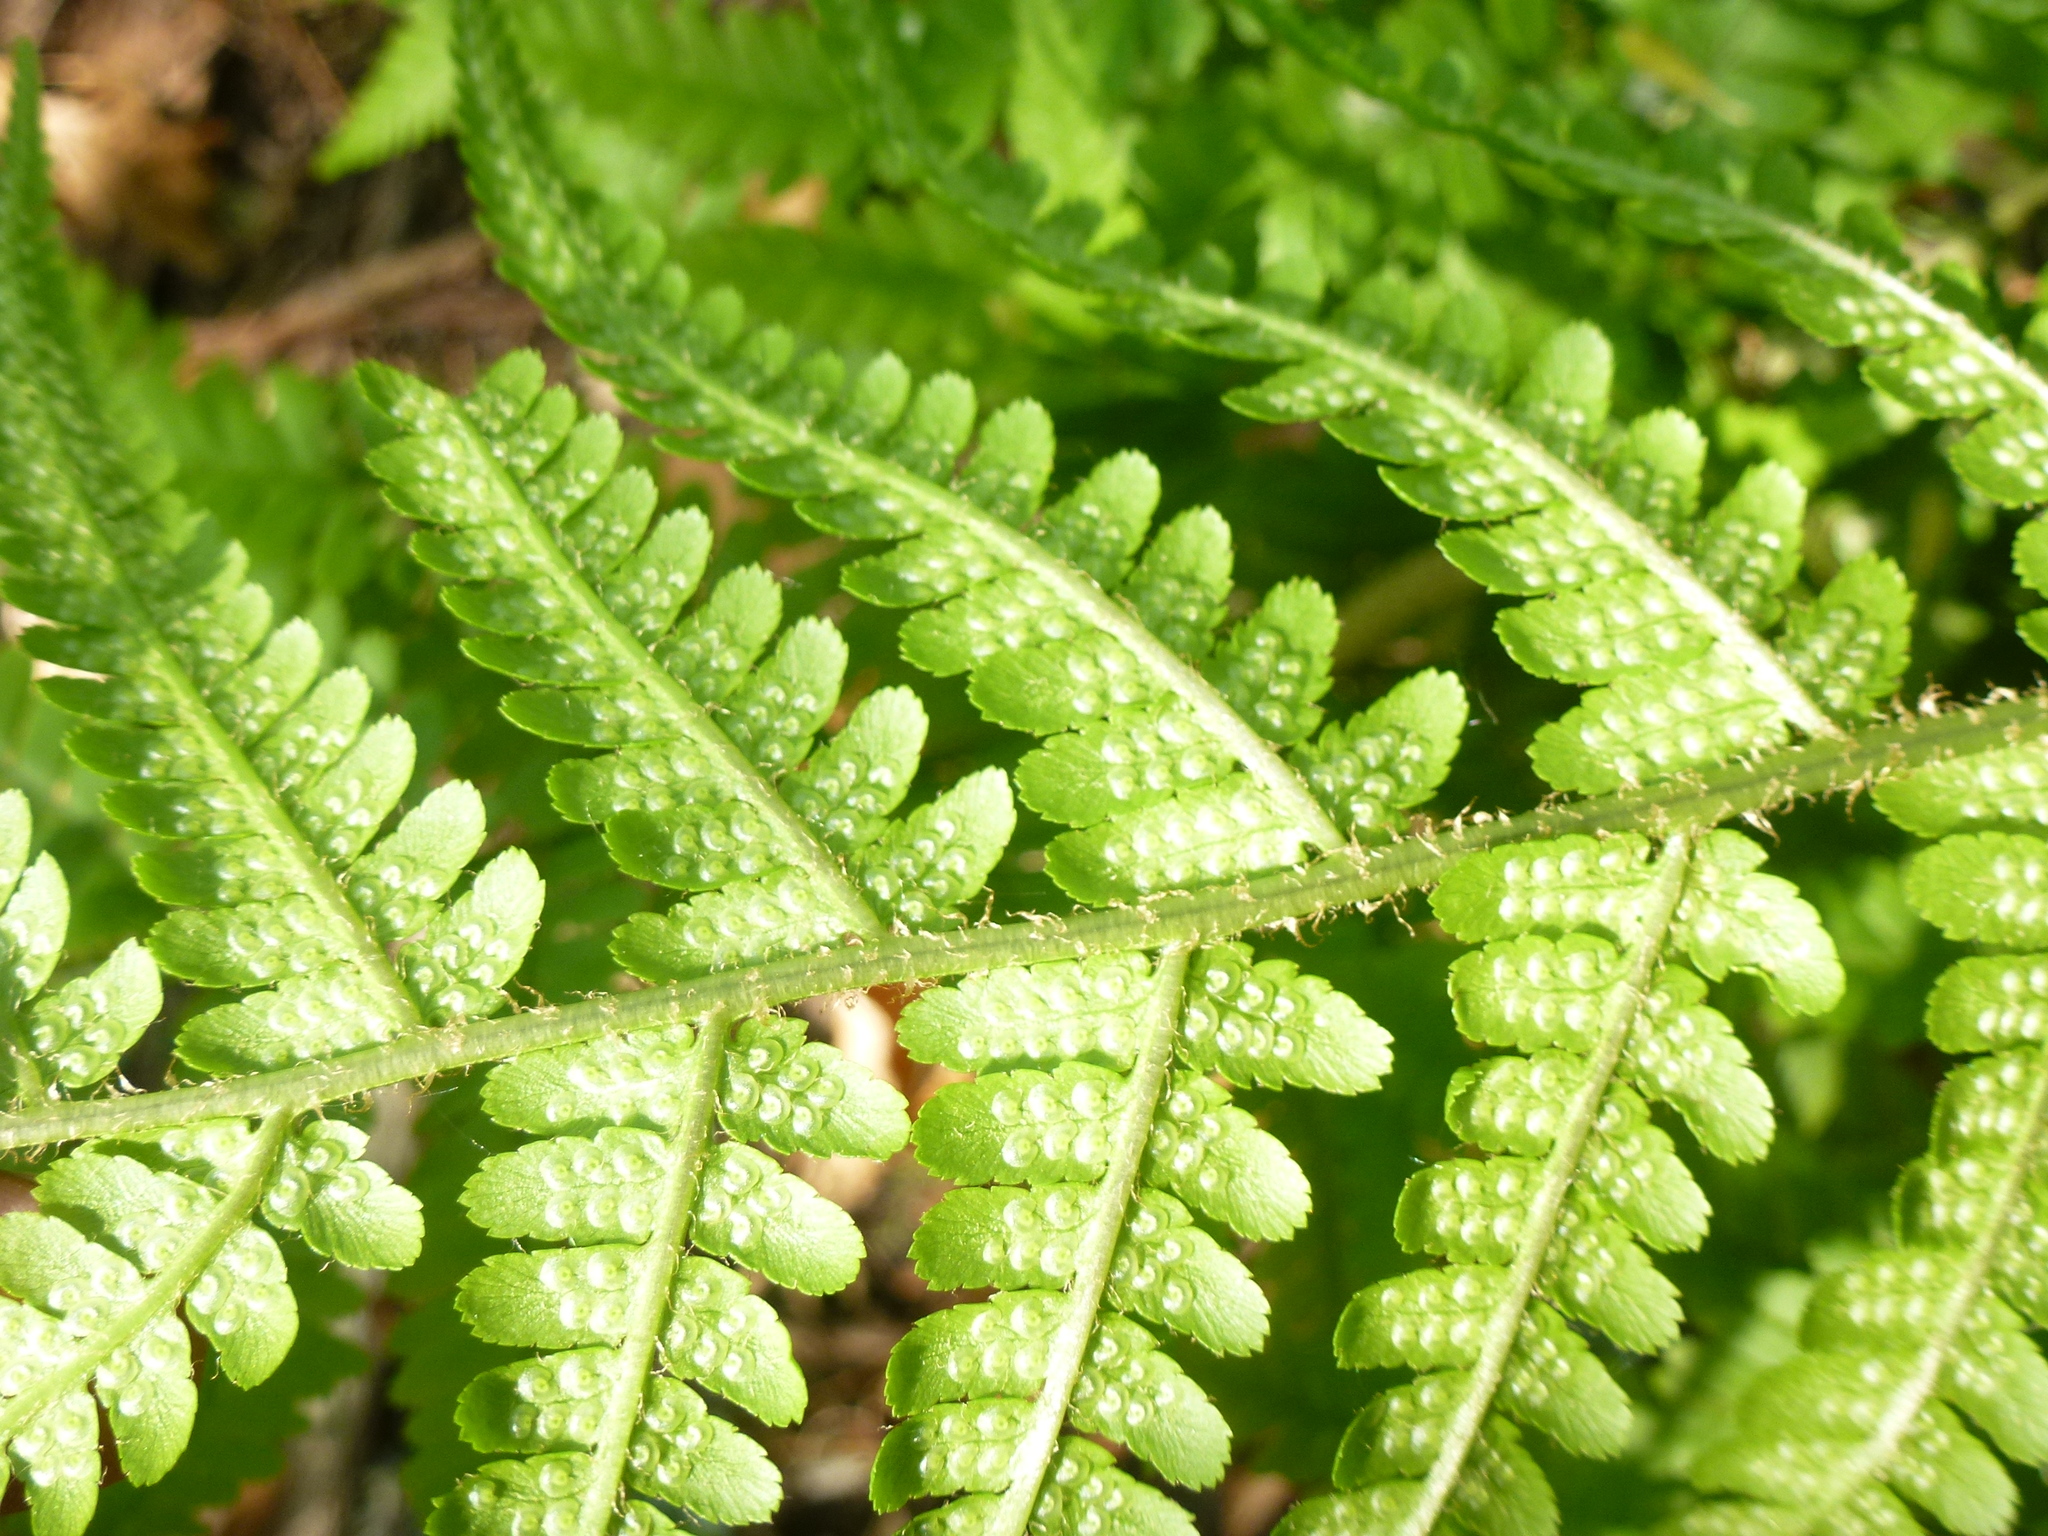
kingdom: Plantae
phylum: Tracheophyta
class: Polypodiopsida
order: Polypodiales
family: Dryopteridaceae
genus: Dryopteris
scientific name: Dryopteris filix-mas
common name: Male fern
